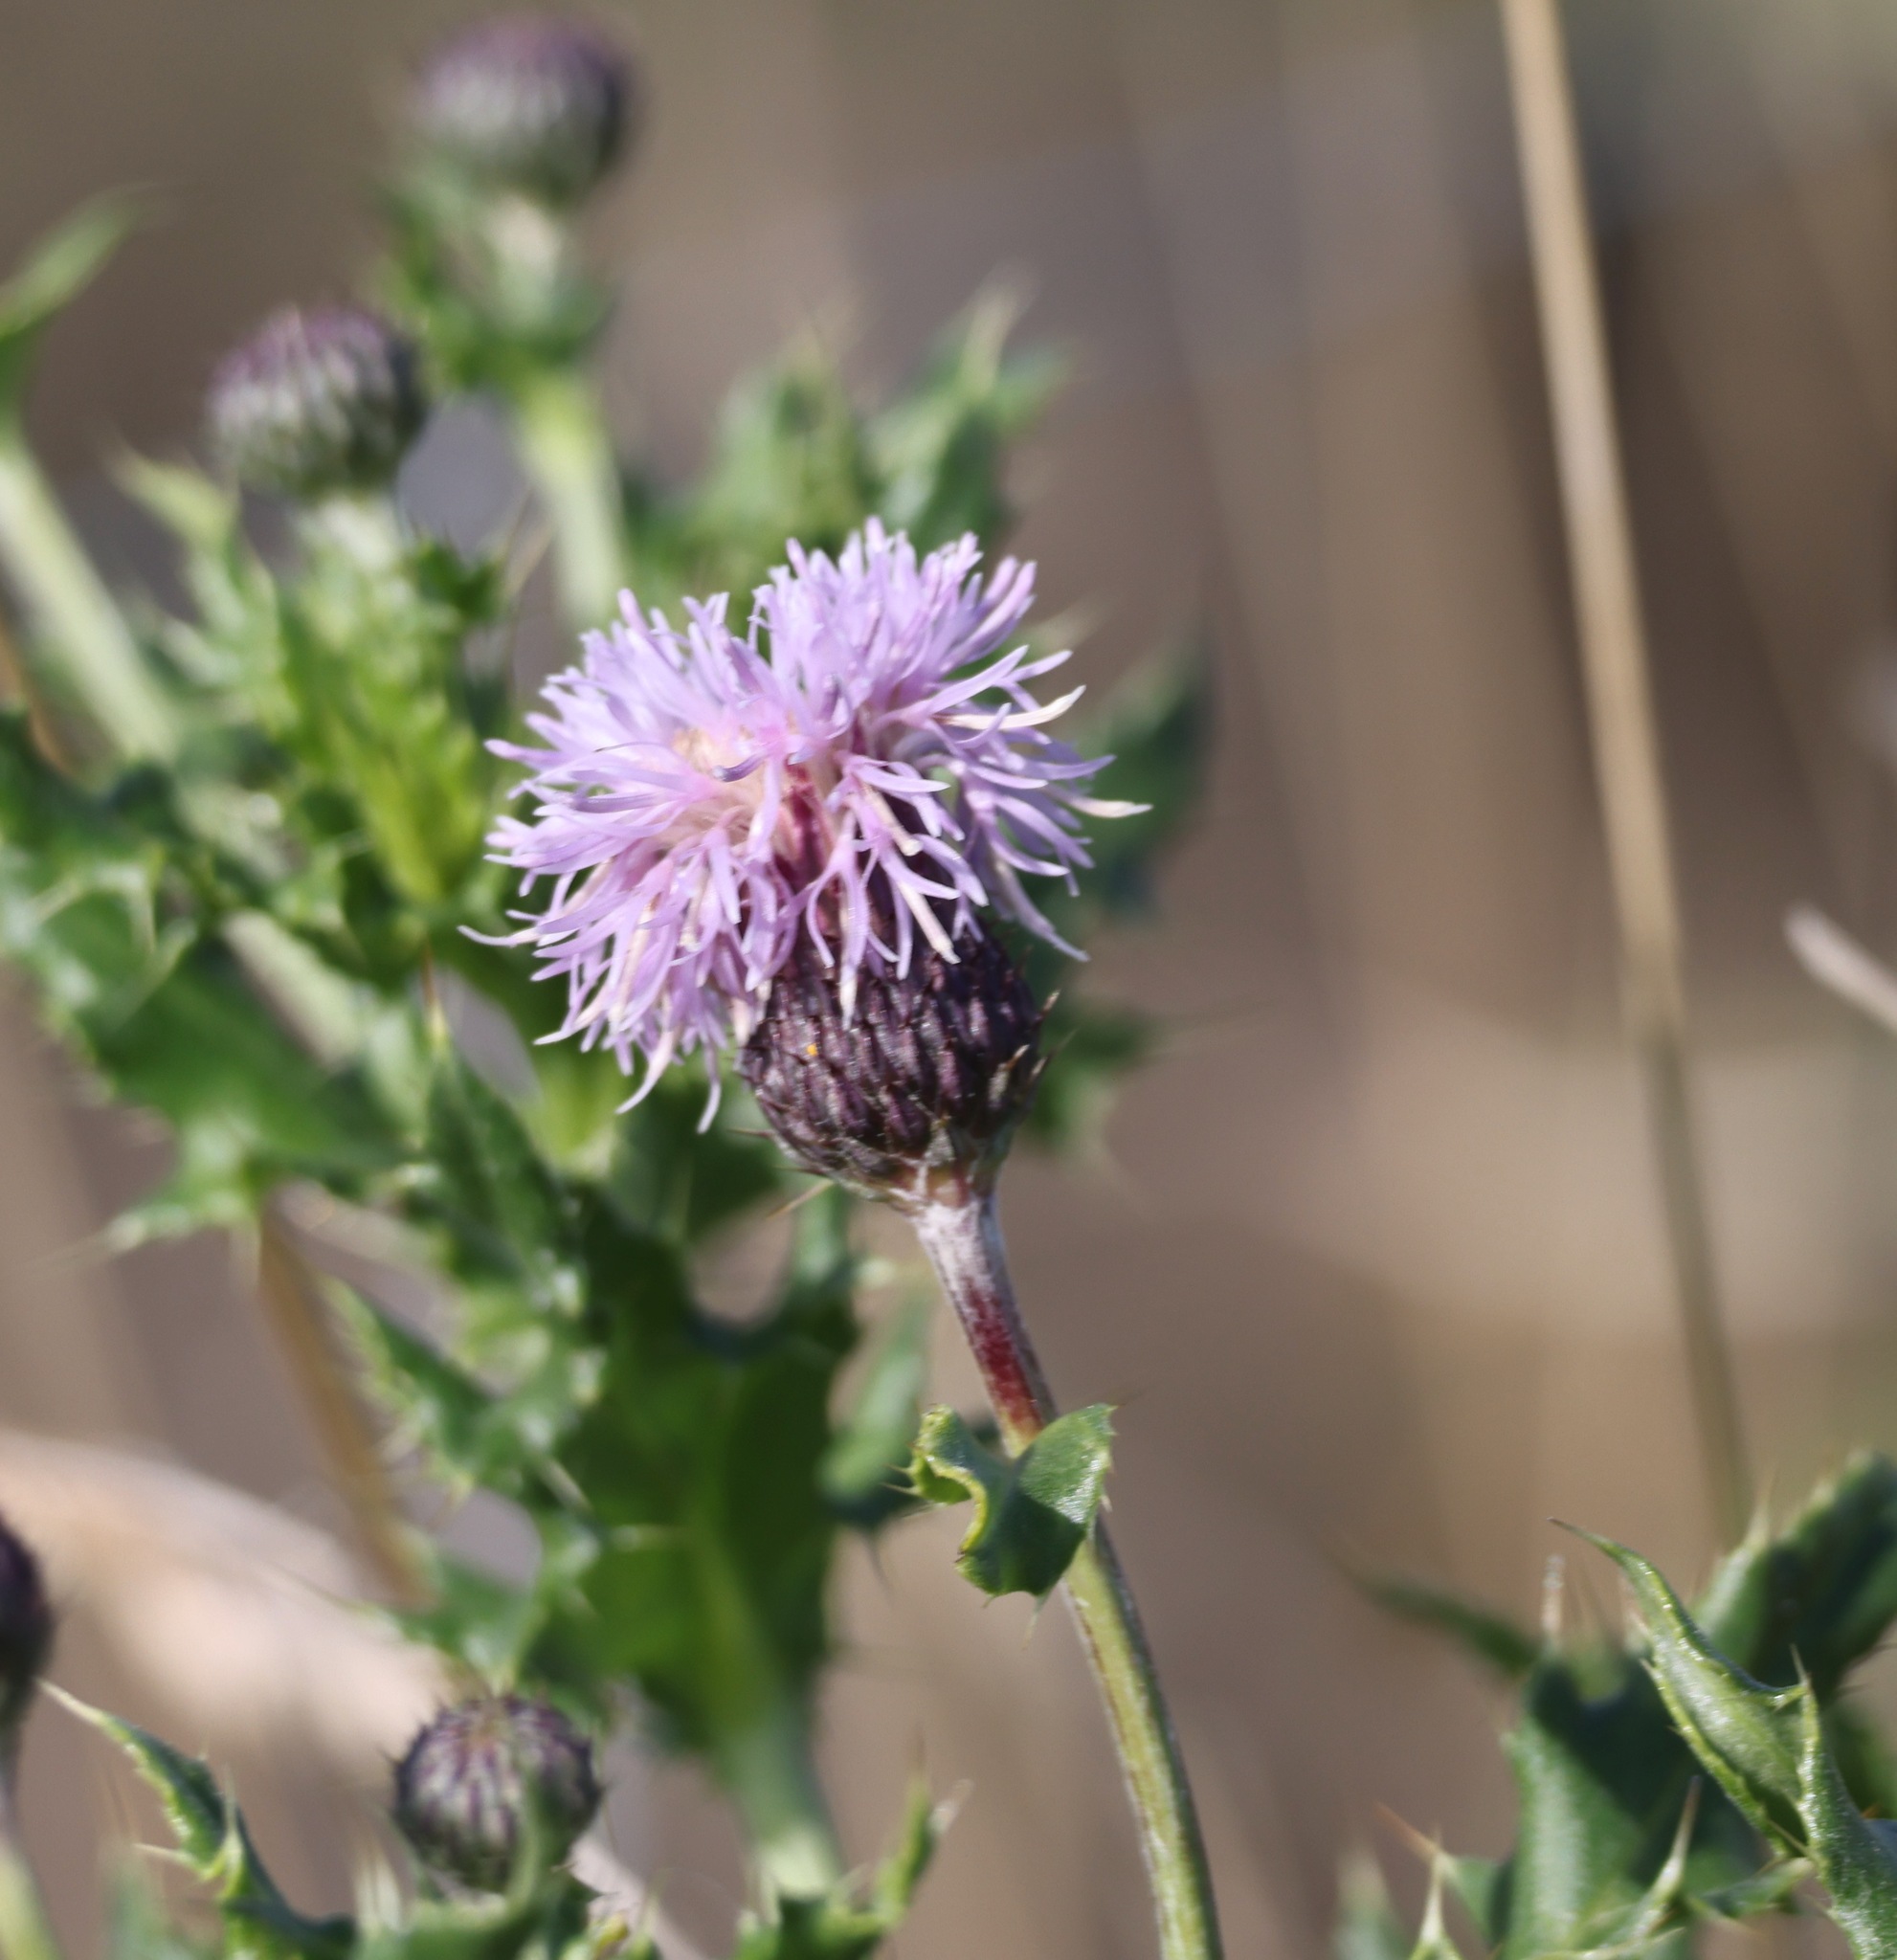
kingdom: Plantae
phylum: Tracheophyta
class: Magnoliopsida
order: Asterales
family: Asteraceae
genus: Cirsium
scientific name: Cirsium arvense
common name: Creeping thistle
